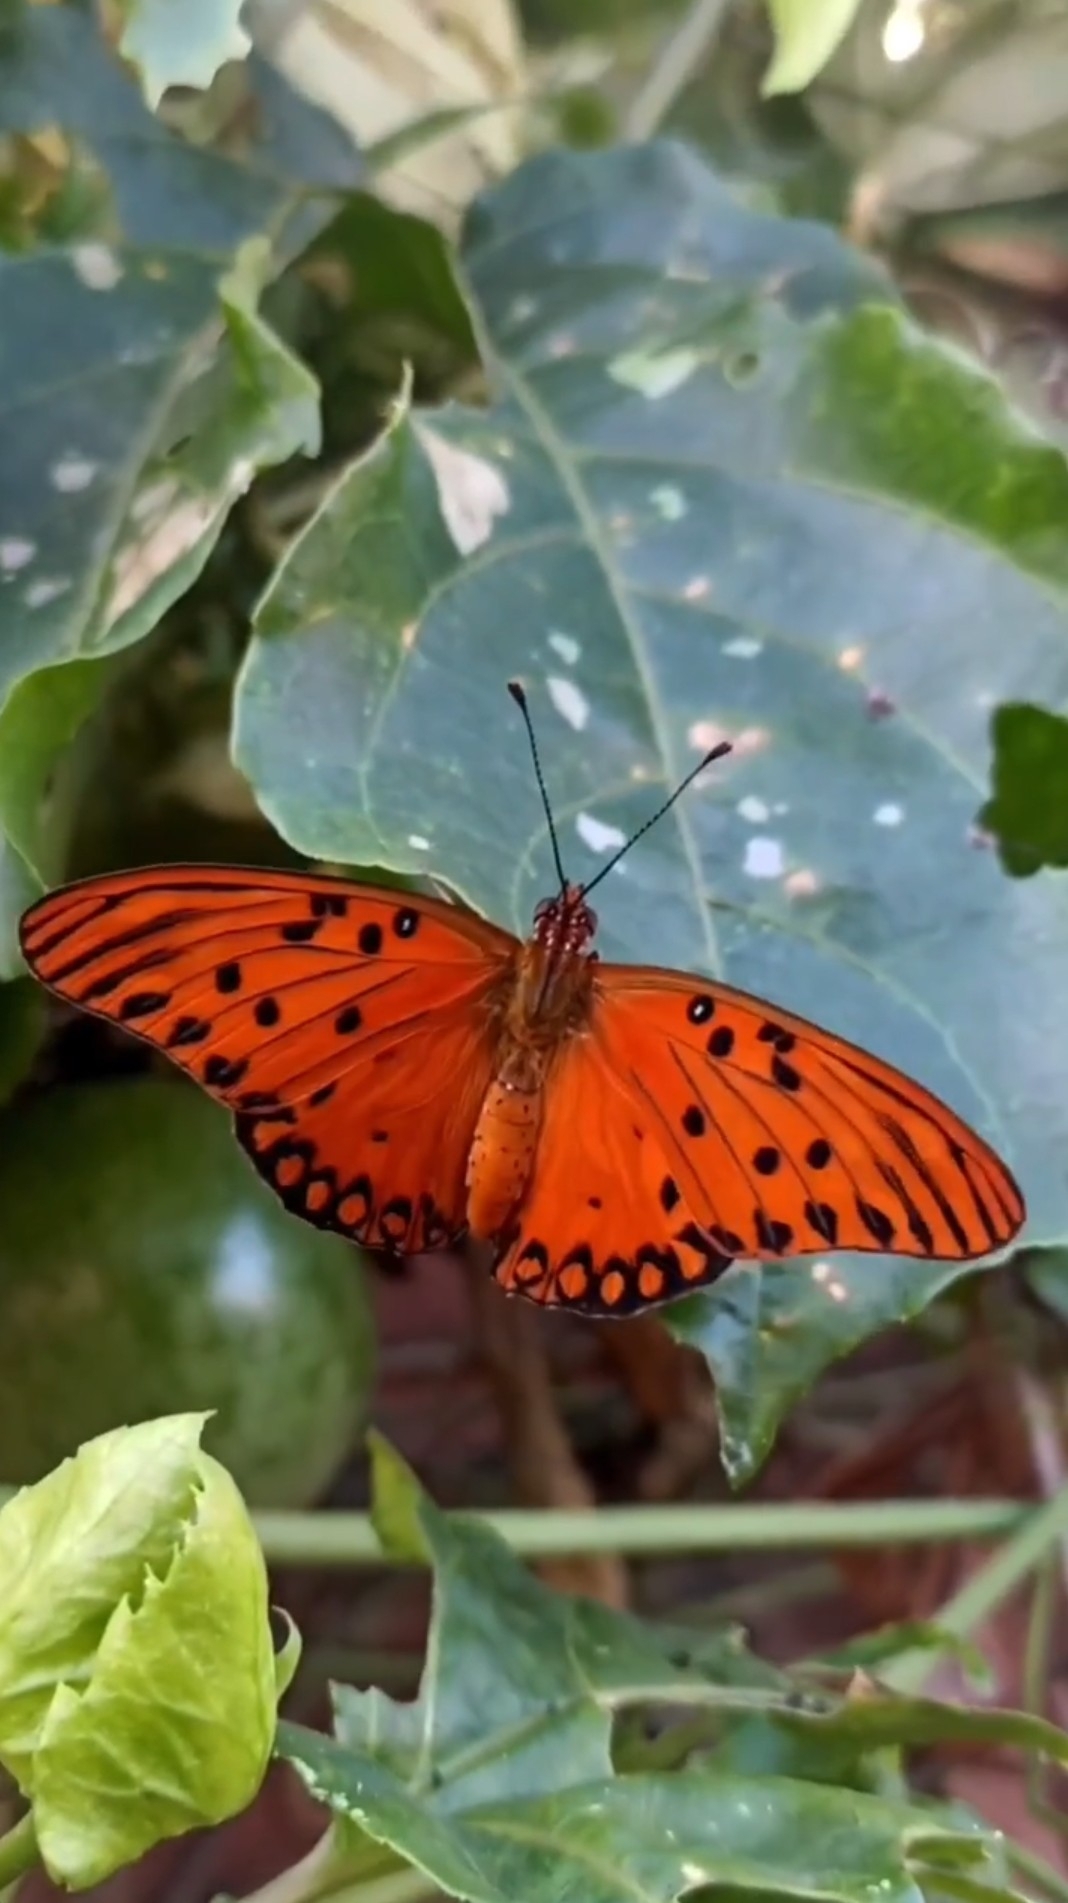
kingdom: Animalia
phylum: Arthropoda
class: Insecta
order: Lepidoptera
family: Nymphalidae
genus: Dione
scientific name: Dione vanillae
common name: Gulf fritillary
